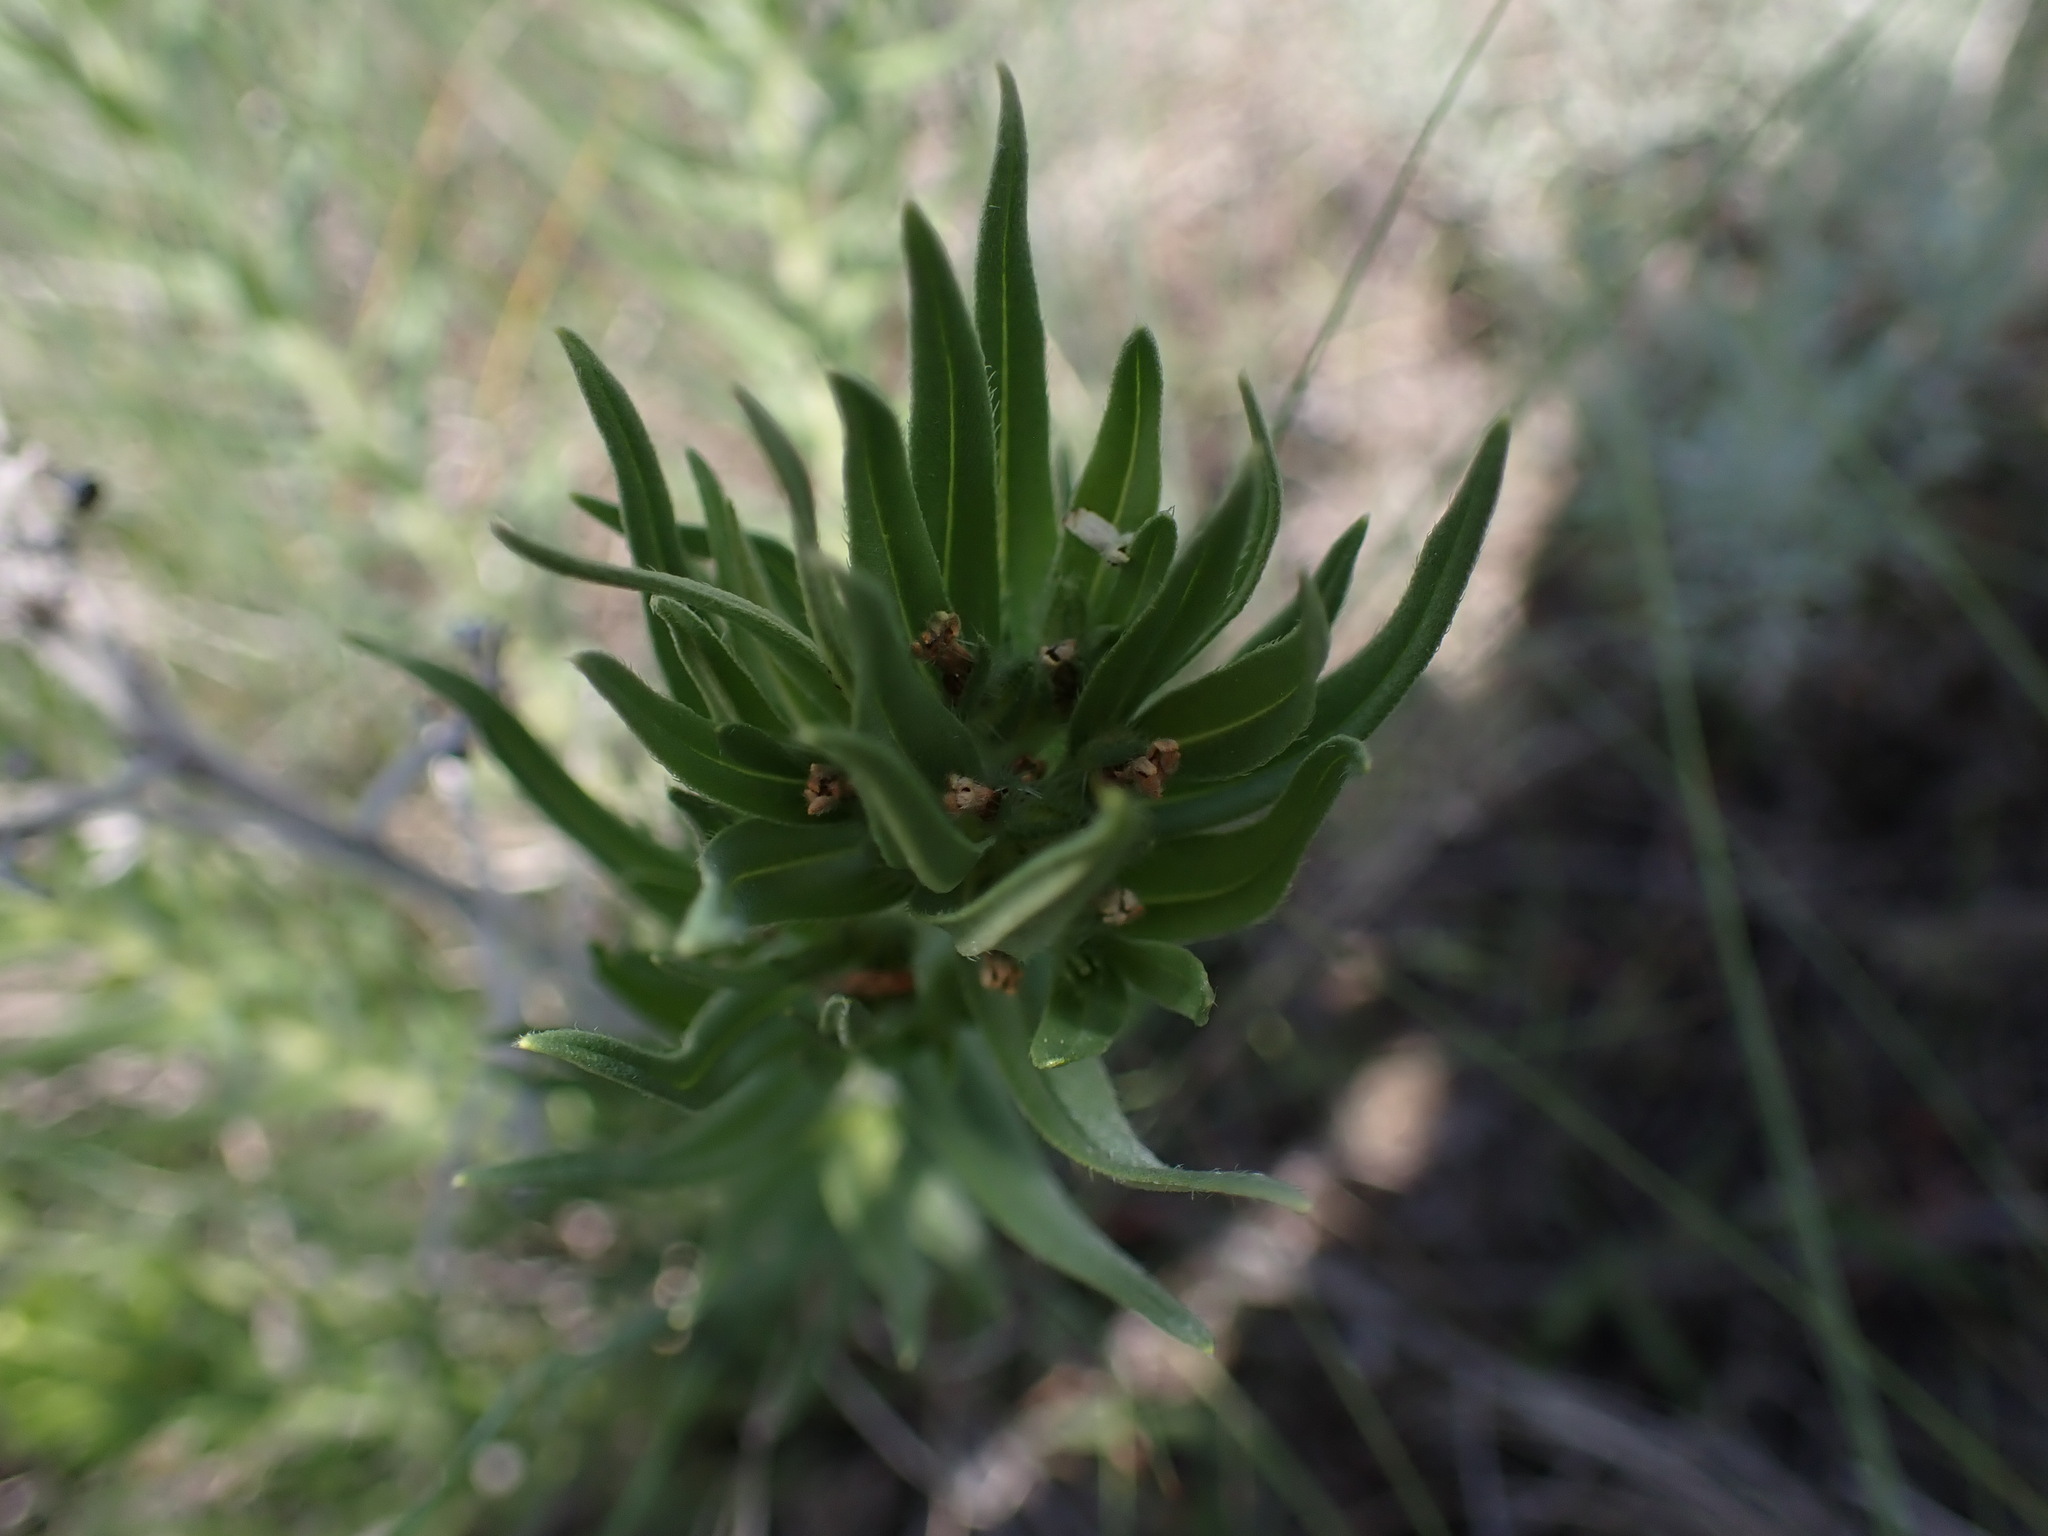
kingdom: Plantae
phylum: Tracheophyta
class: Magnoliopsida
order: Boraginales
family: Boraginaceae
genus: Lithospermum
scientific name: Lithospermum ruderale
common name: Western gromwell
